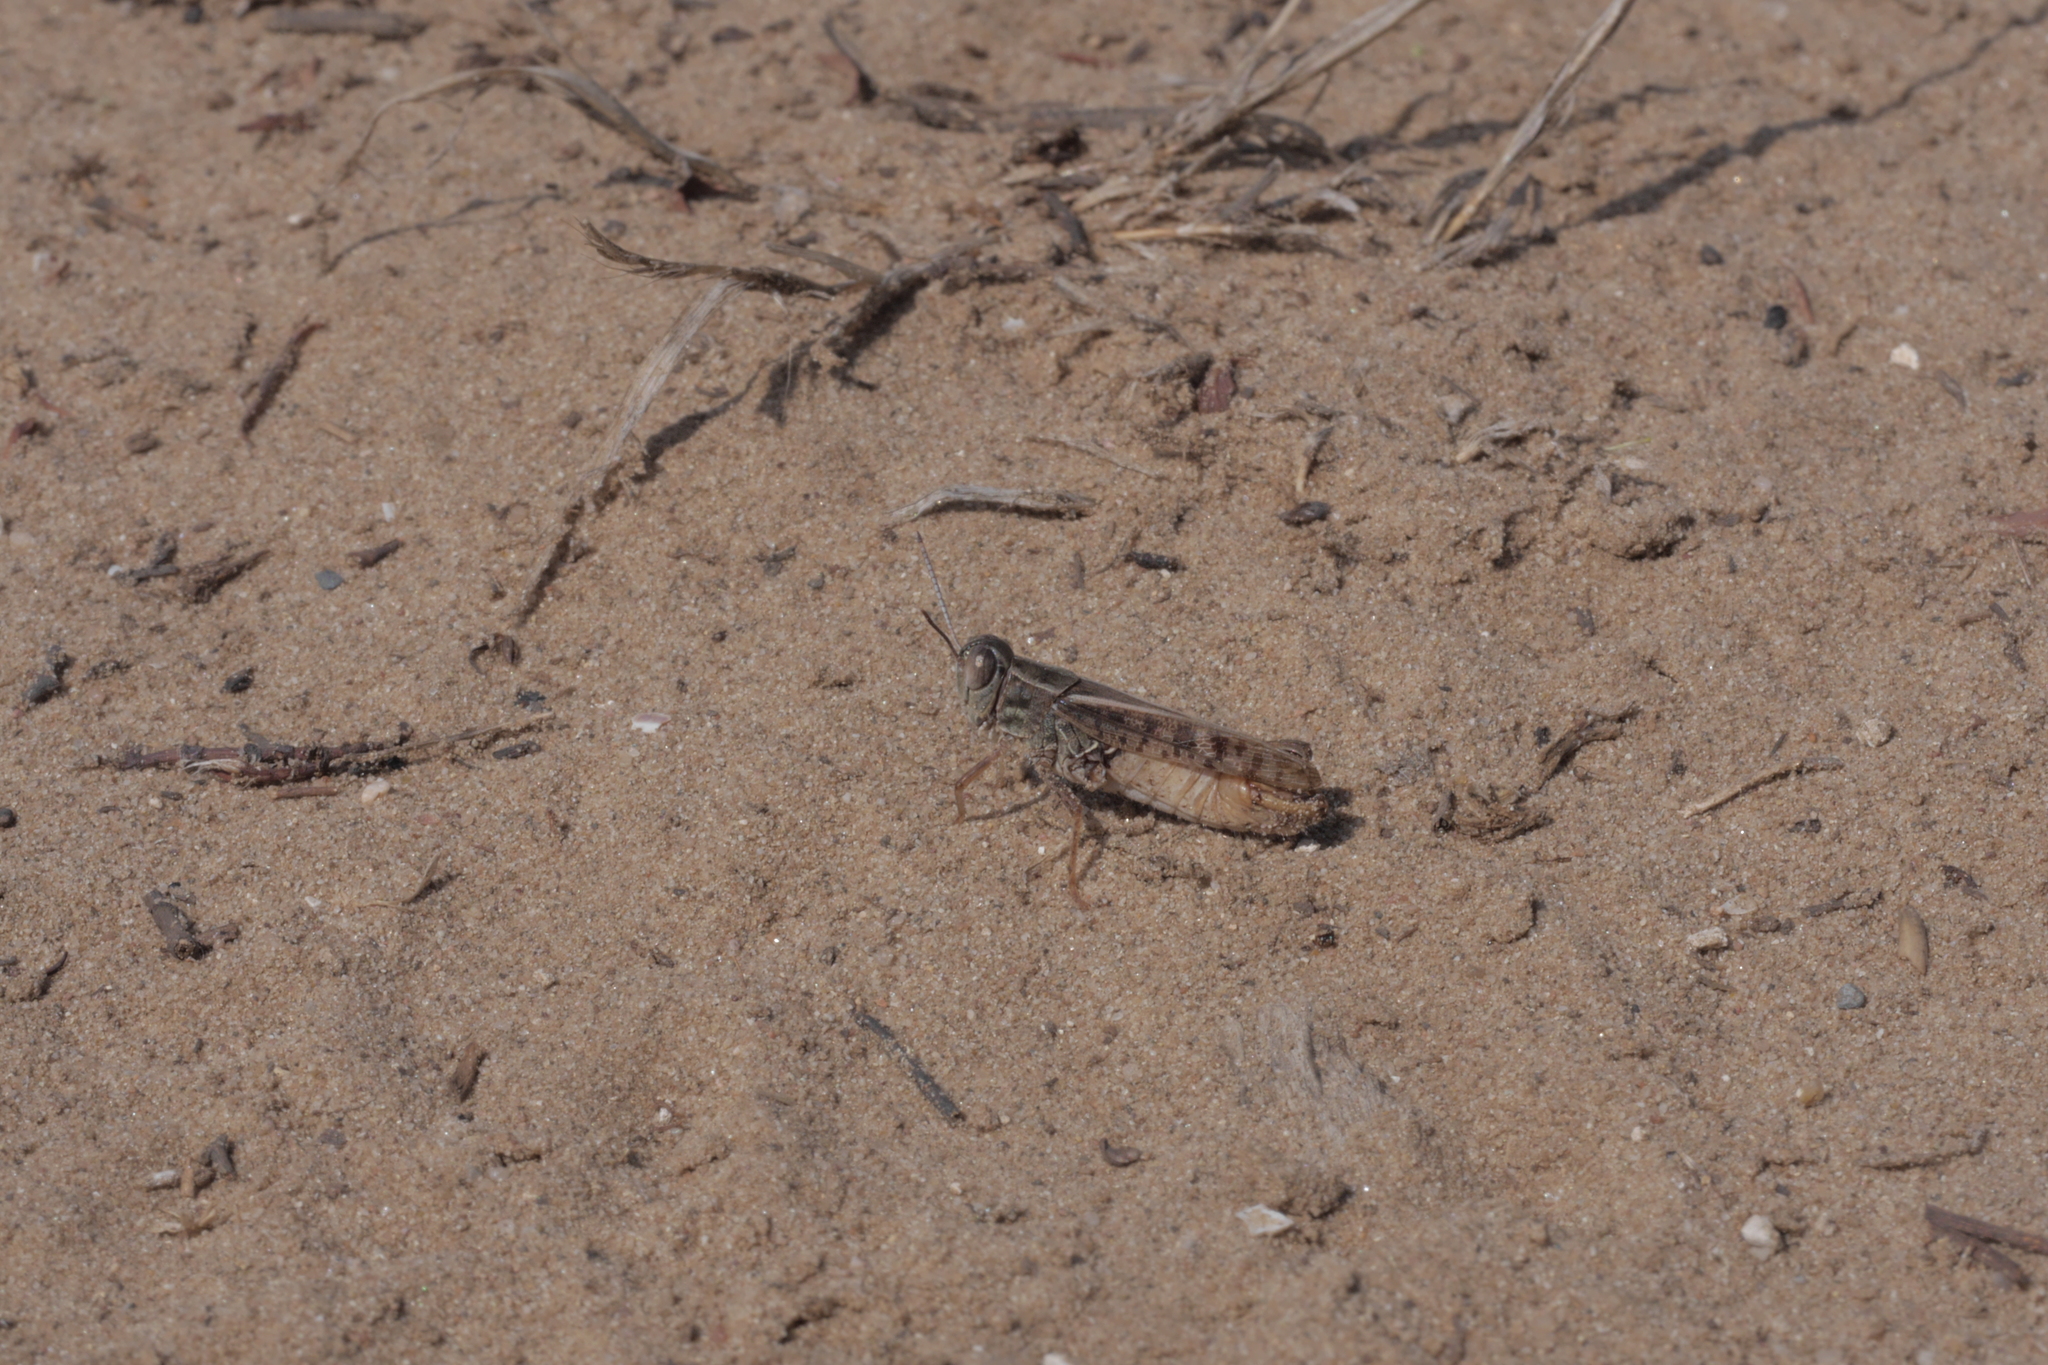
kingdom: Animalia
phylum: Arthropoda
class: Insecta
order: Orthoptera
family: Acrididae
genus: Calliptamus
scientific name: Calliptamus italicus
